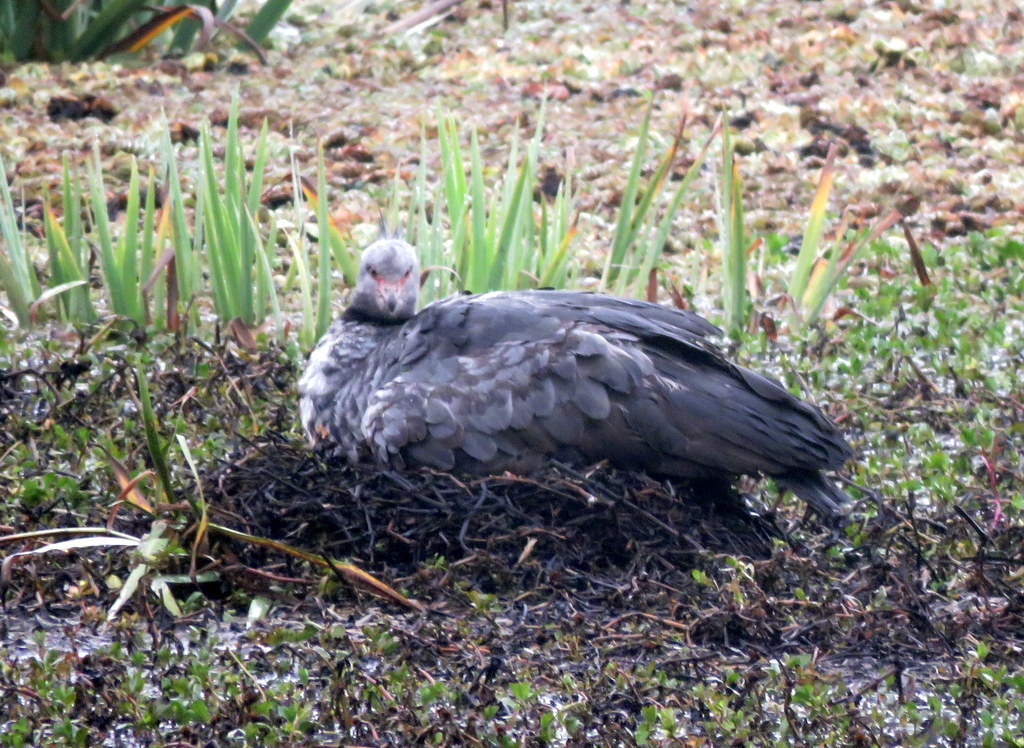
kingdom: Animalia
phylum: Chordata
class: Aves
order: Anseriformes
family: Anhimidae
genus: Chauna
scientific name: Chauna torquata
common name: Southern screamer
